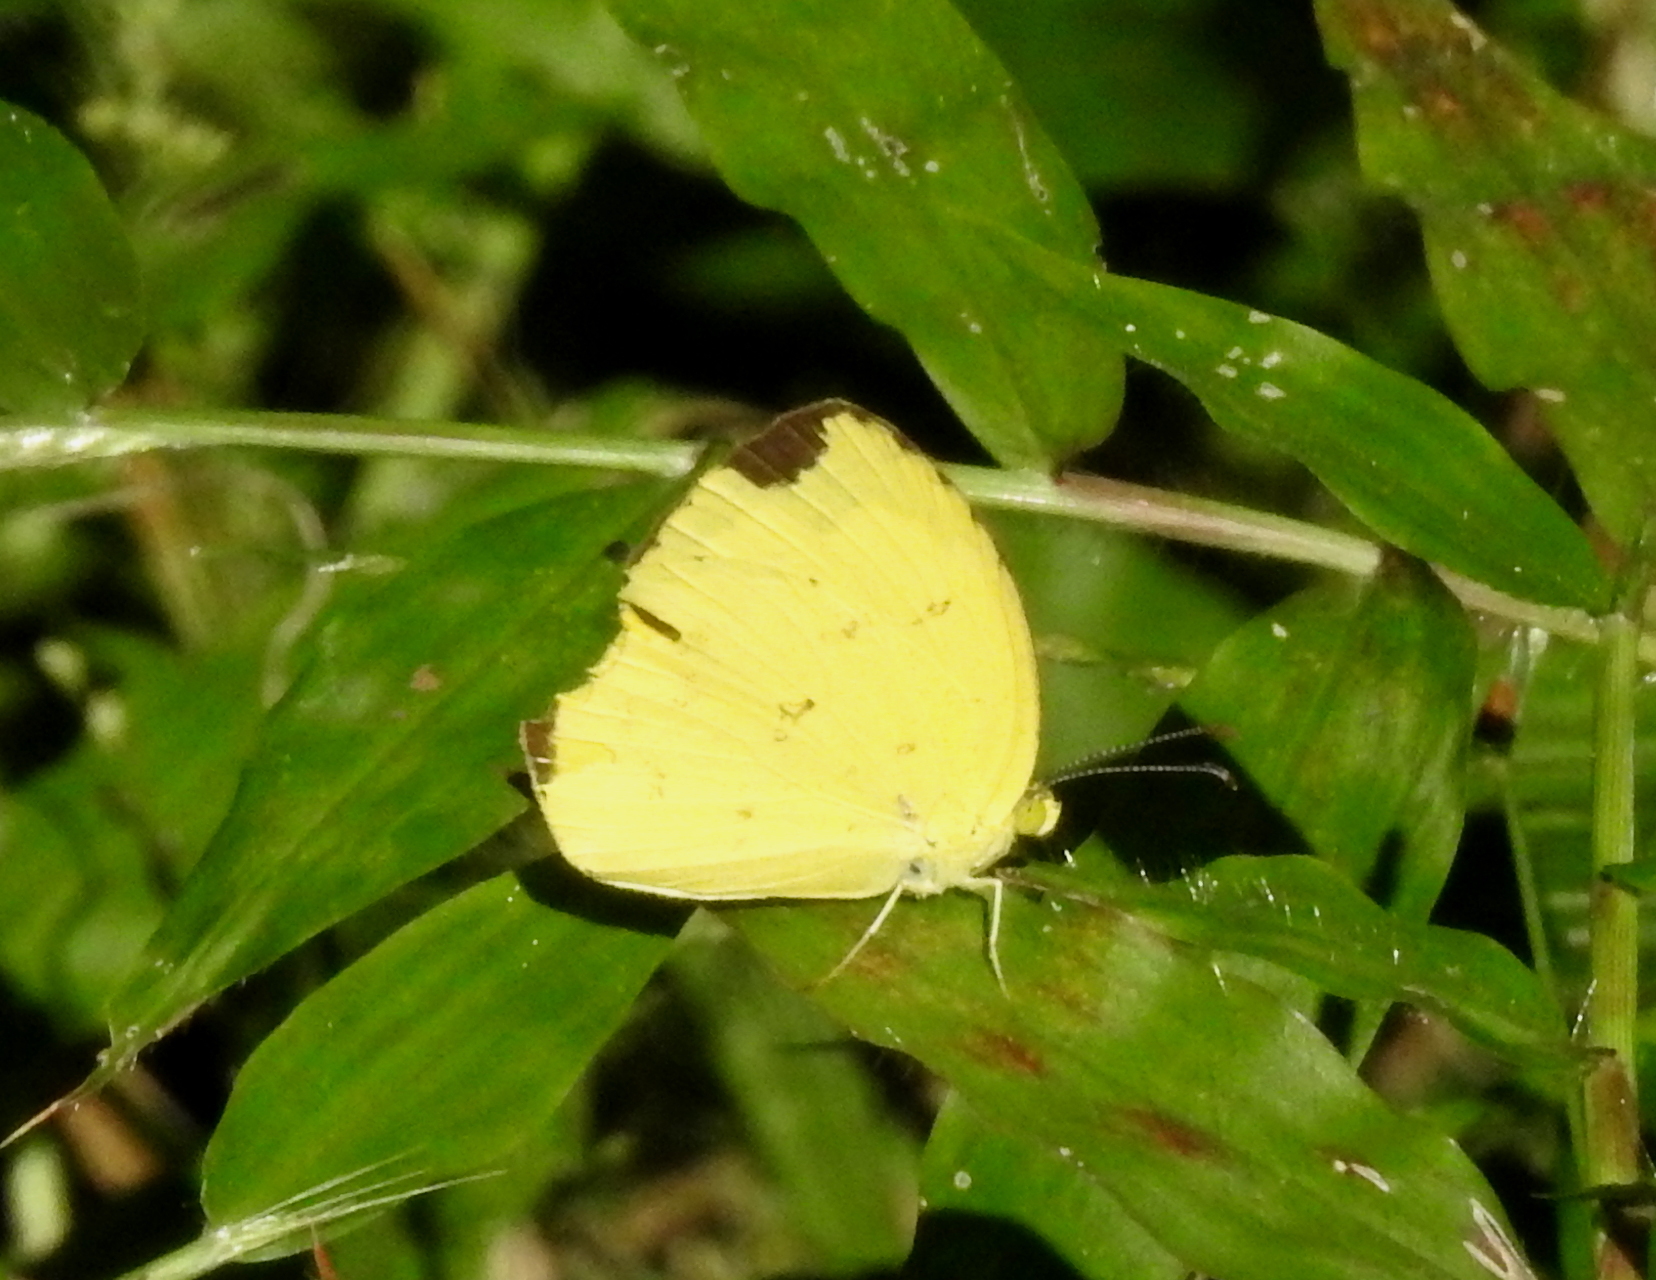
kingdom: Animalia
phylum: Arthropoda
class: Insecta
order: Lepidoptera
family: Pieridae
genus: Eurema
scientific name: Eurema hecabe
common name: Pale grass yellow
